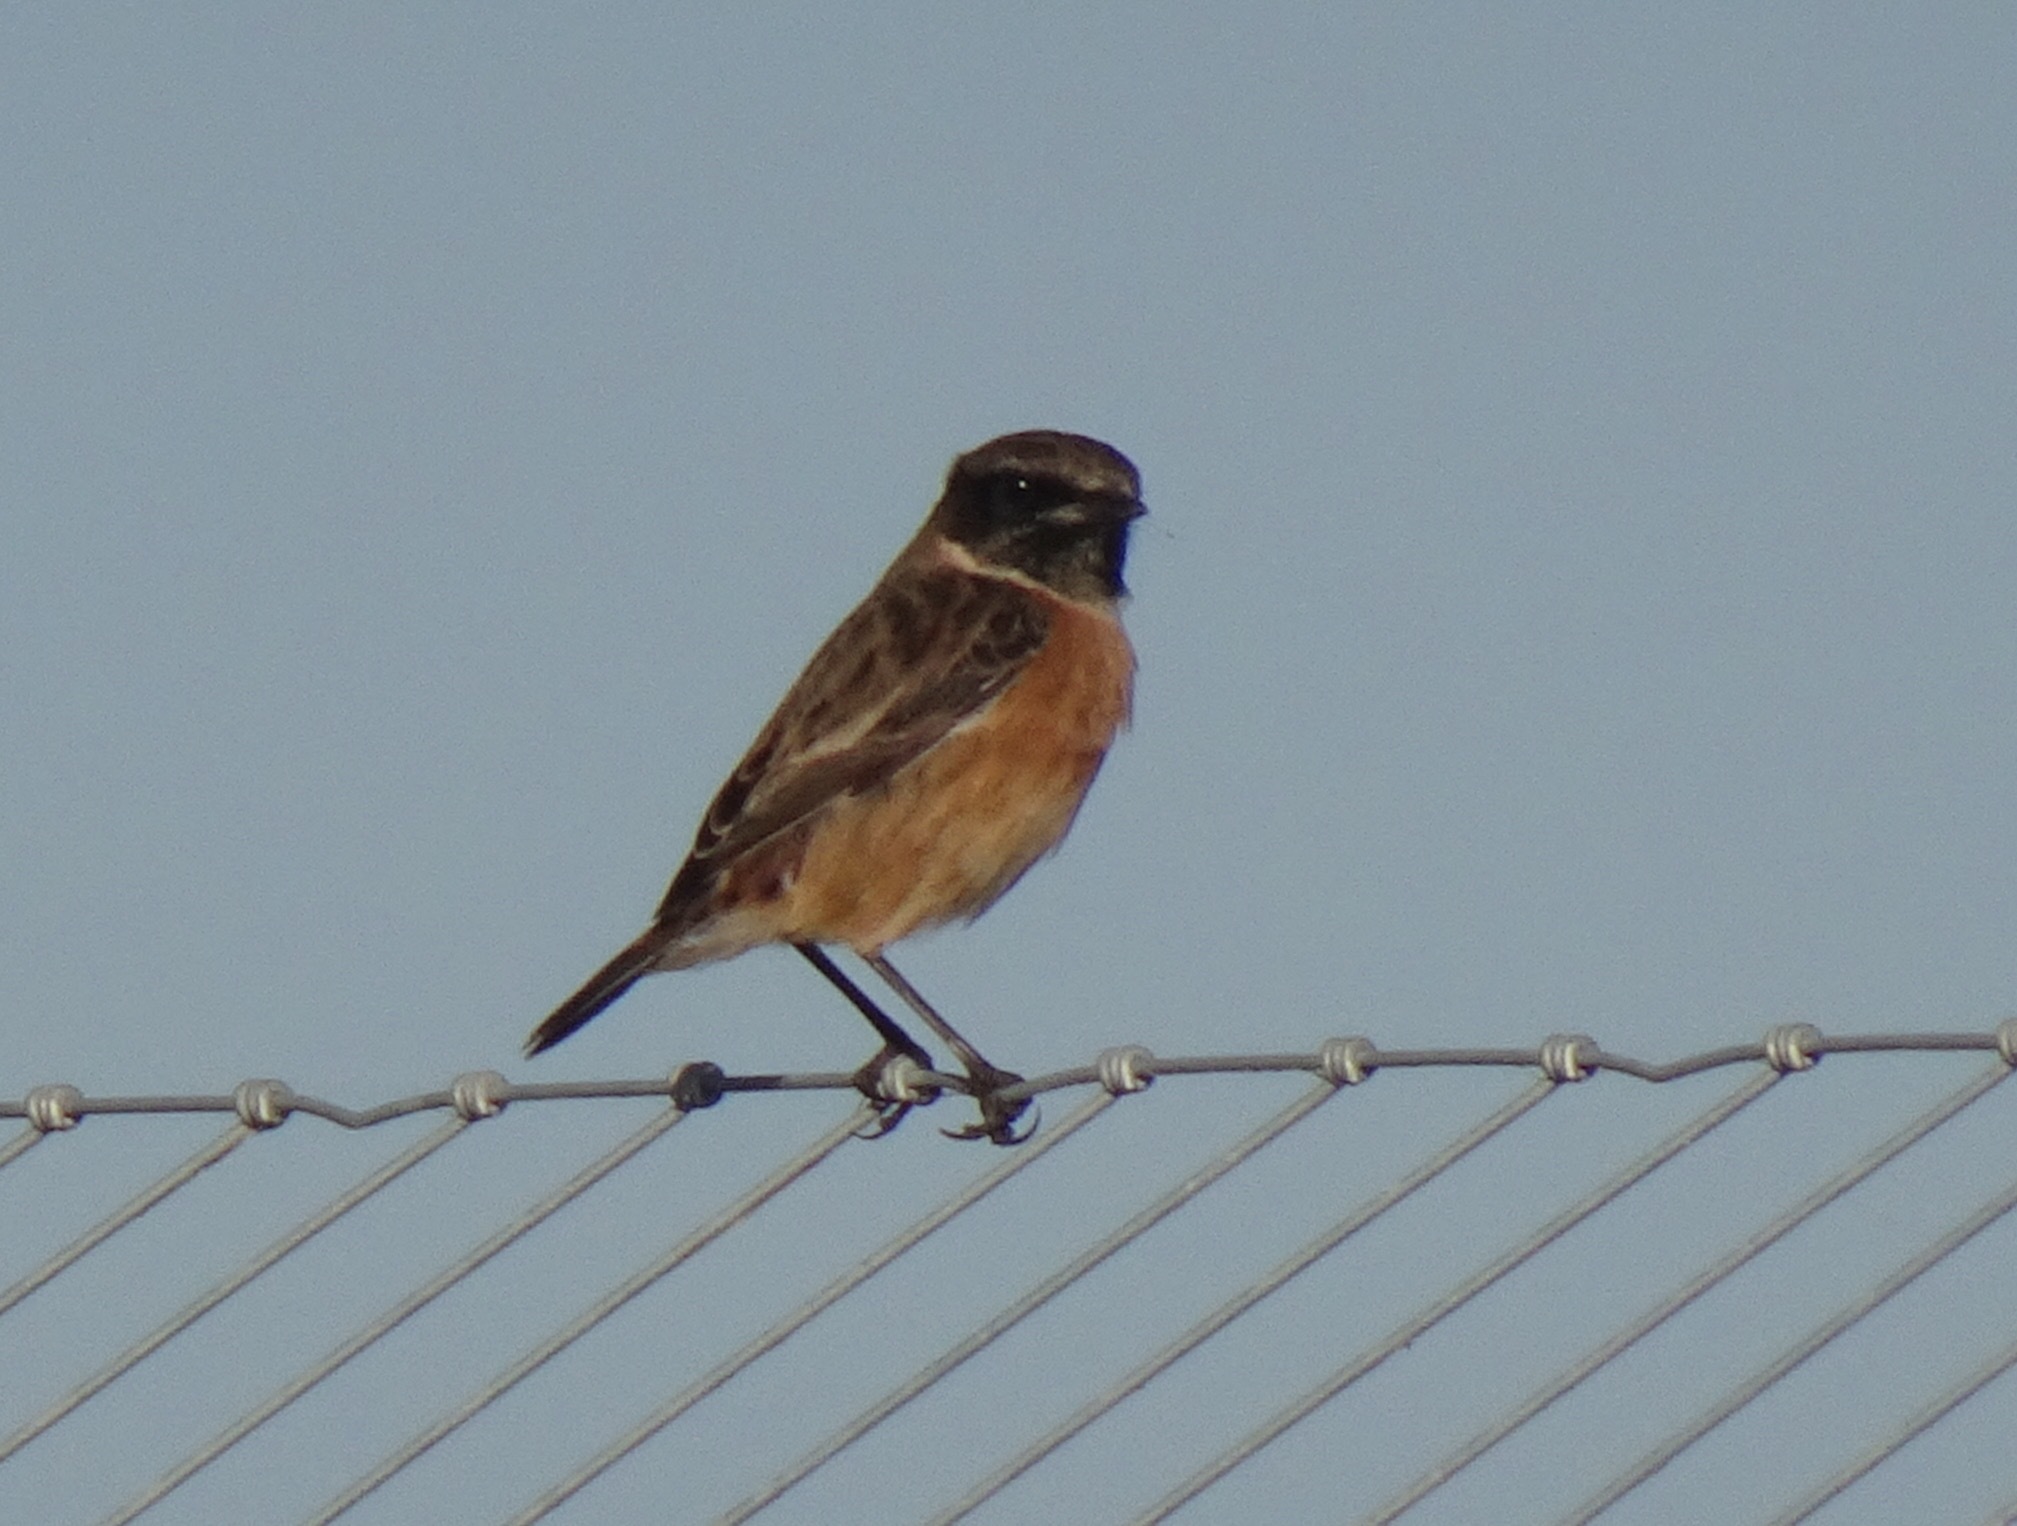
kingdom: Animalia
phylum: Chordata
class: Aves
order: Passeriformes
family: Muscicapidae
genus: Saxicola
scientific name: Saxicola rubicola
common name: European stonechat
